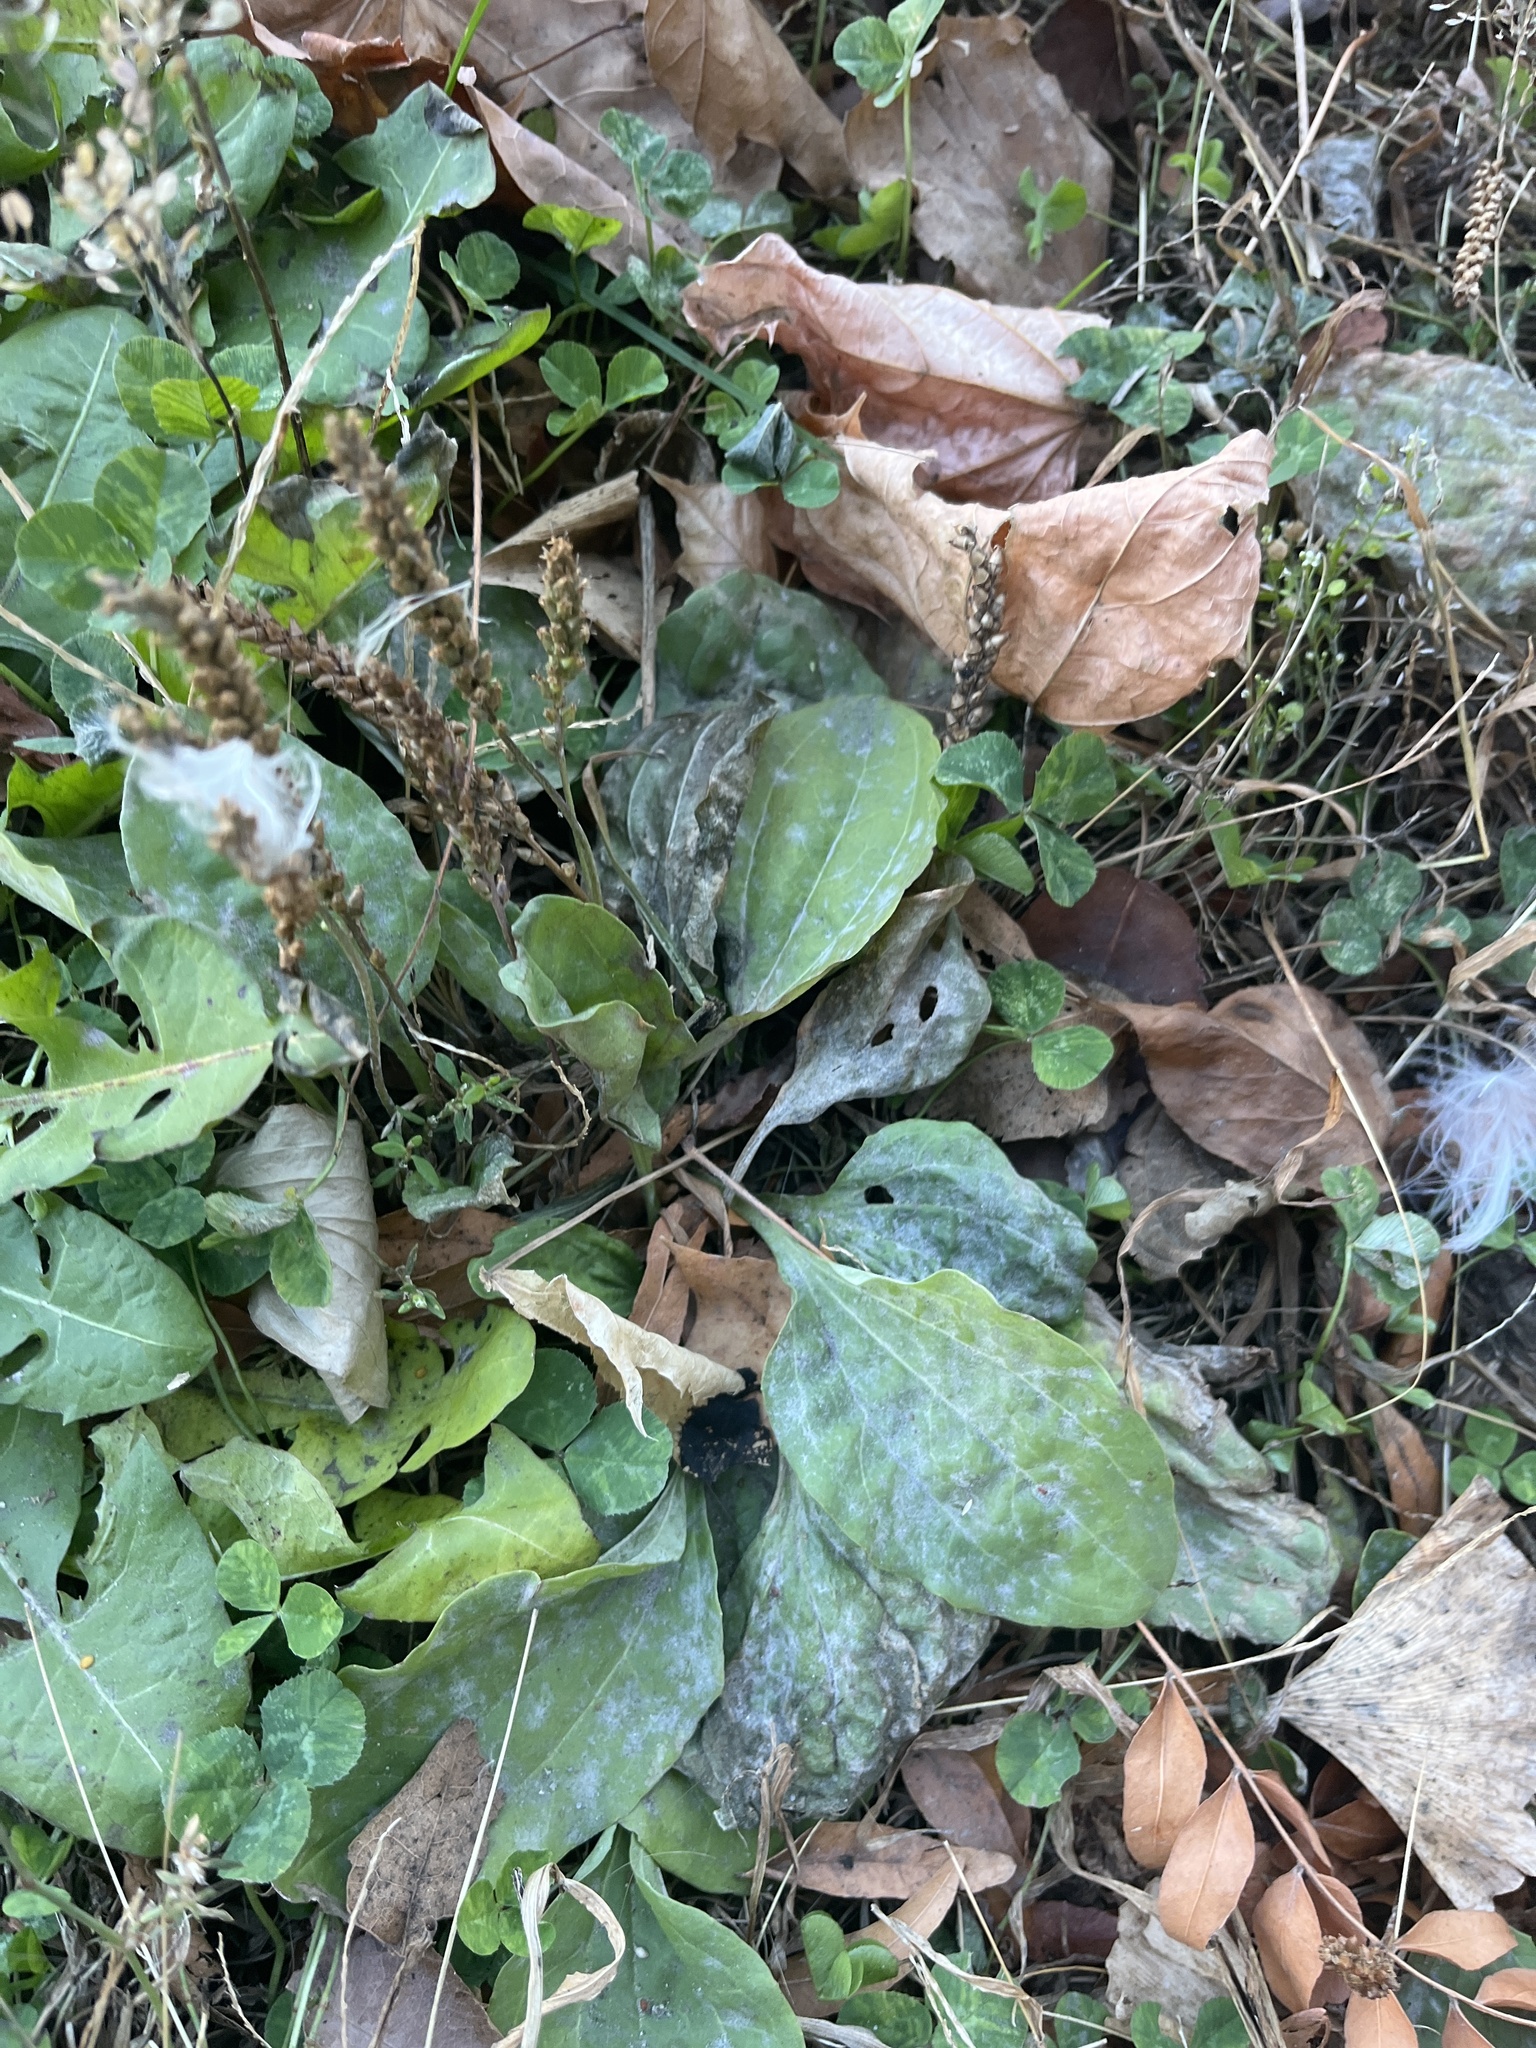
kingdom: Plantae
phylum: Tracheophyta
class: Magnoliopsida
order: Lamiales
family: Plantaginaceae
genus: Plantago
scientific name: Plantago major
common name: Common plantain
